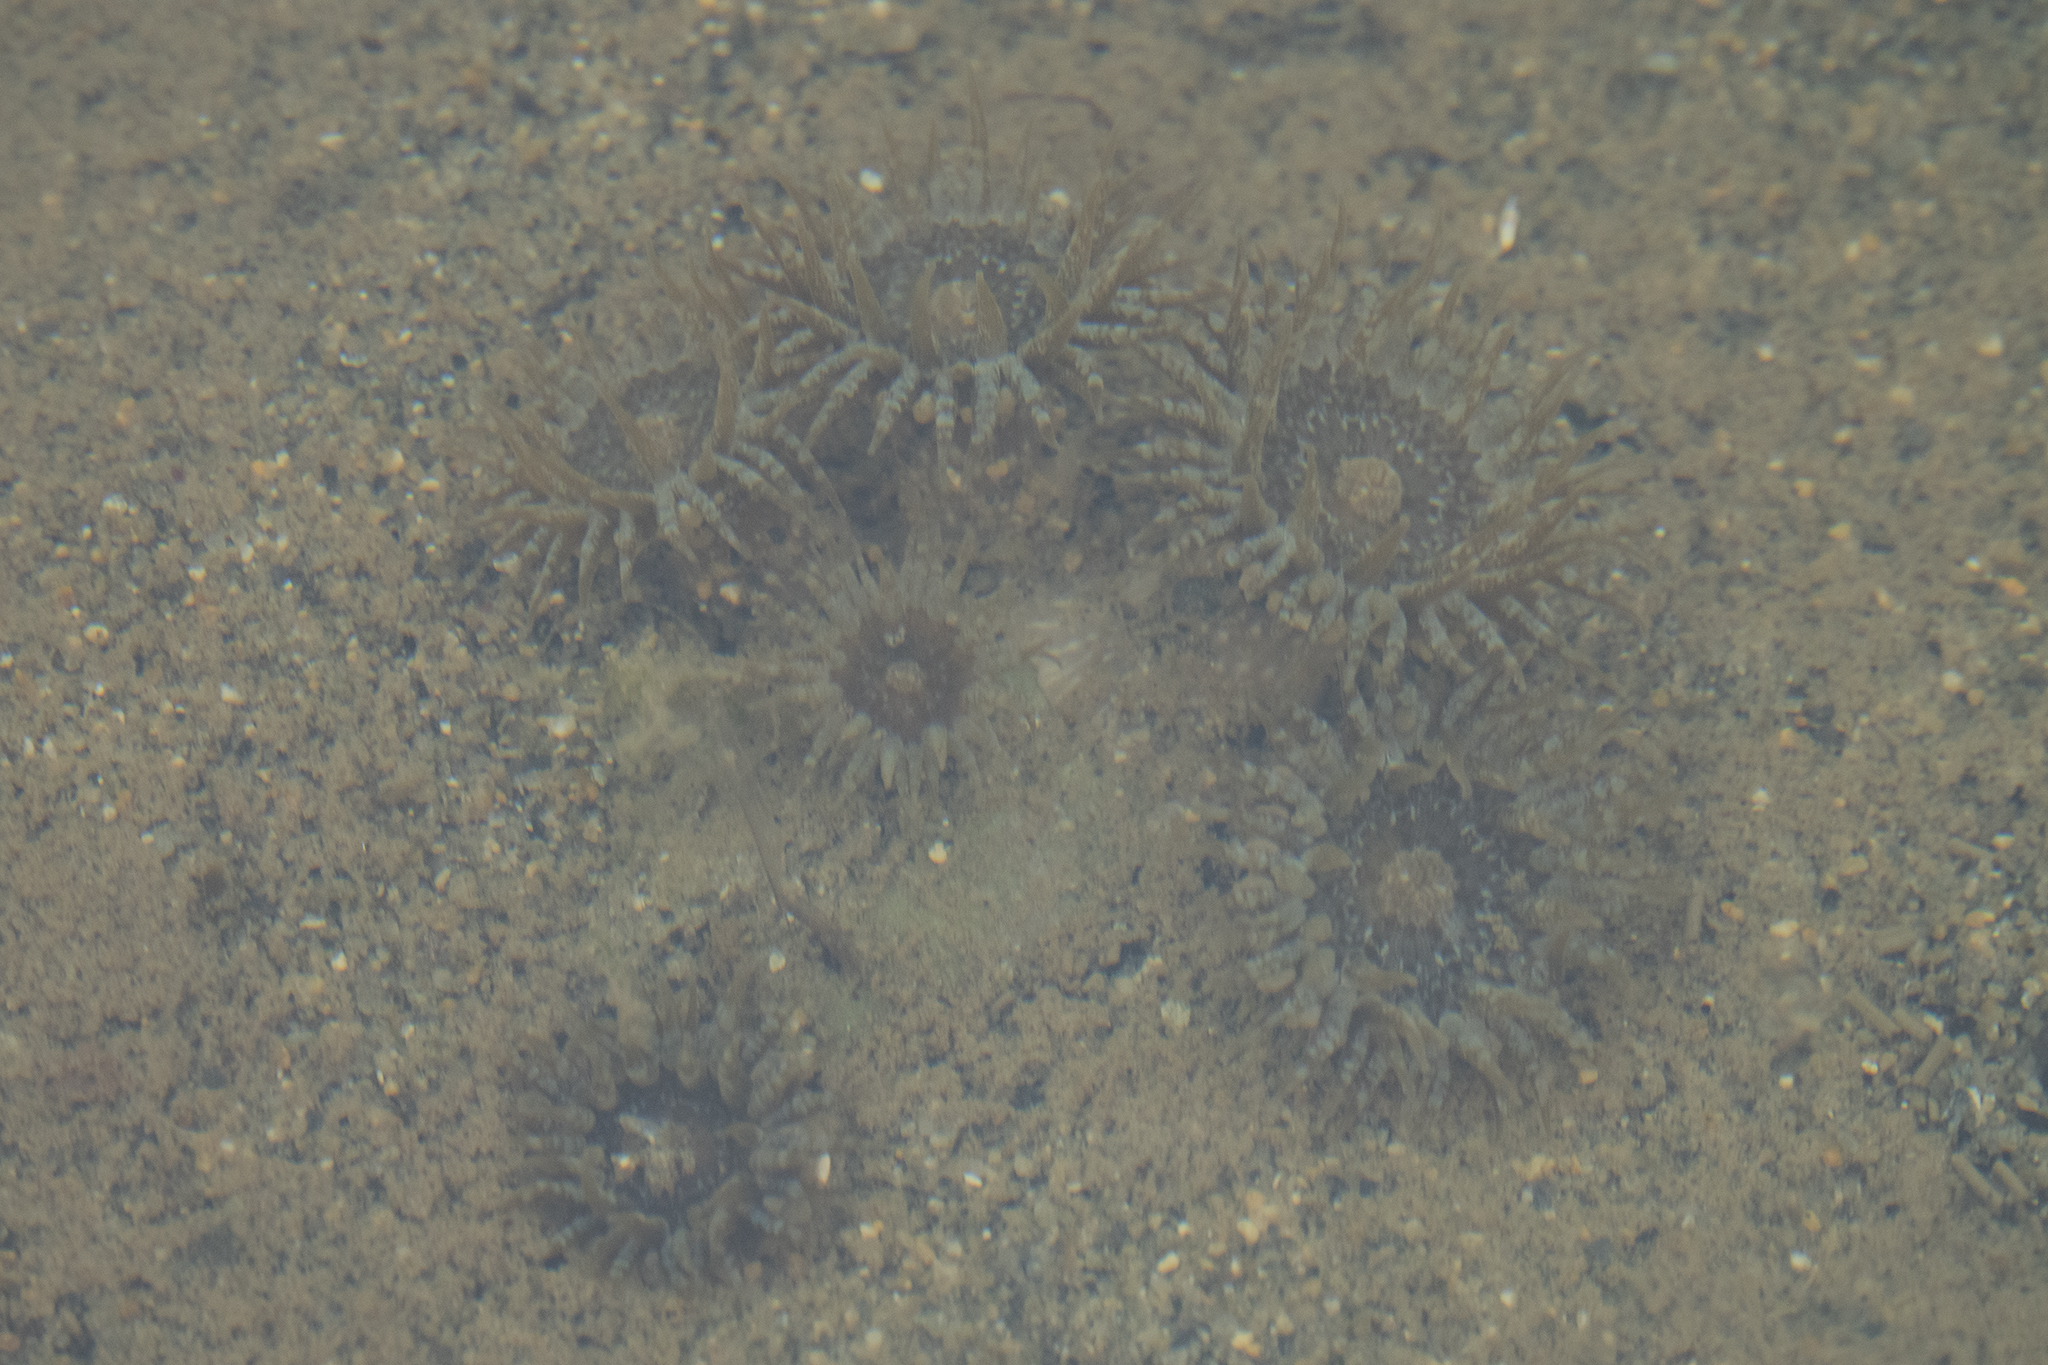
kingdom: Animalia
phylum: Cnidaria
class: Anthozoa
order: Actiniaria
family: Actiniidae
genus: Anthopleura
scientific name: Anthopleura hermaphroditica
